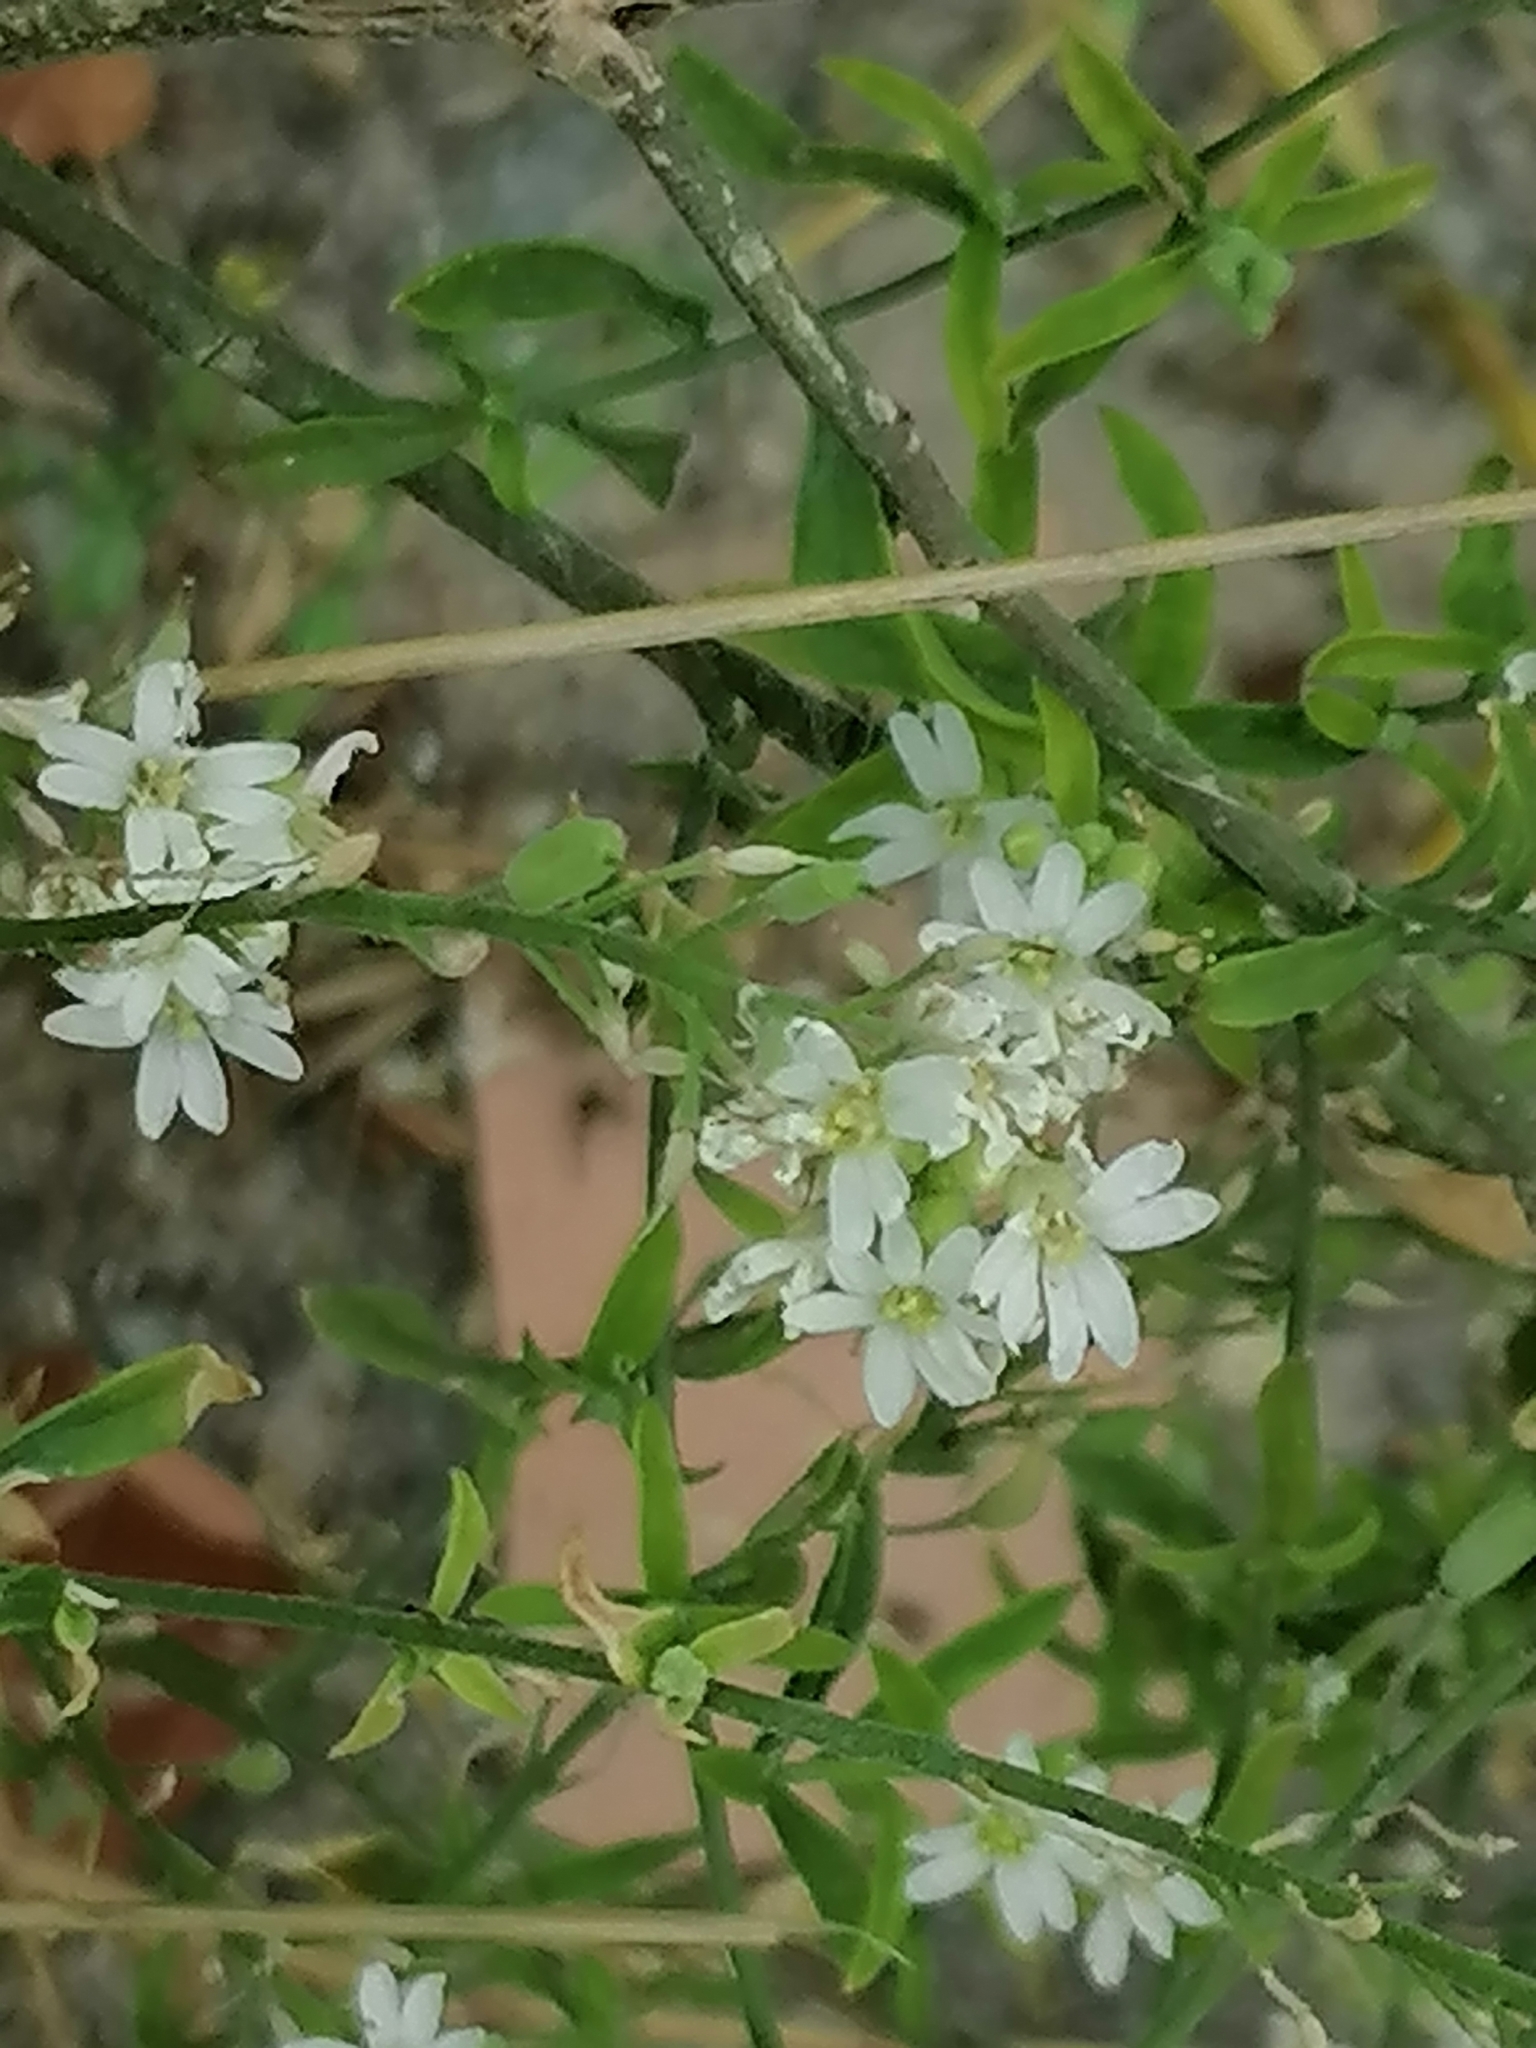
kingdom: Plantae
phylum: Tracheophyta
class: Magnoliopsida
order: Brassicales
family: Brassicaceae
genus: Berteroa
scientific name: Berteroa incana
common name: Hoary alison
